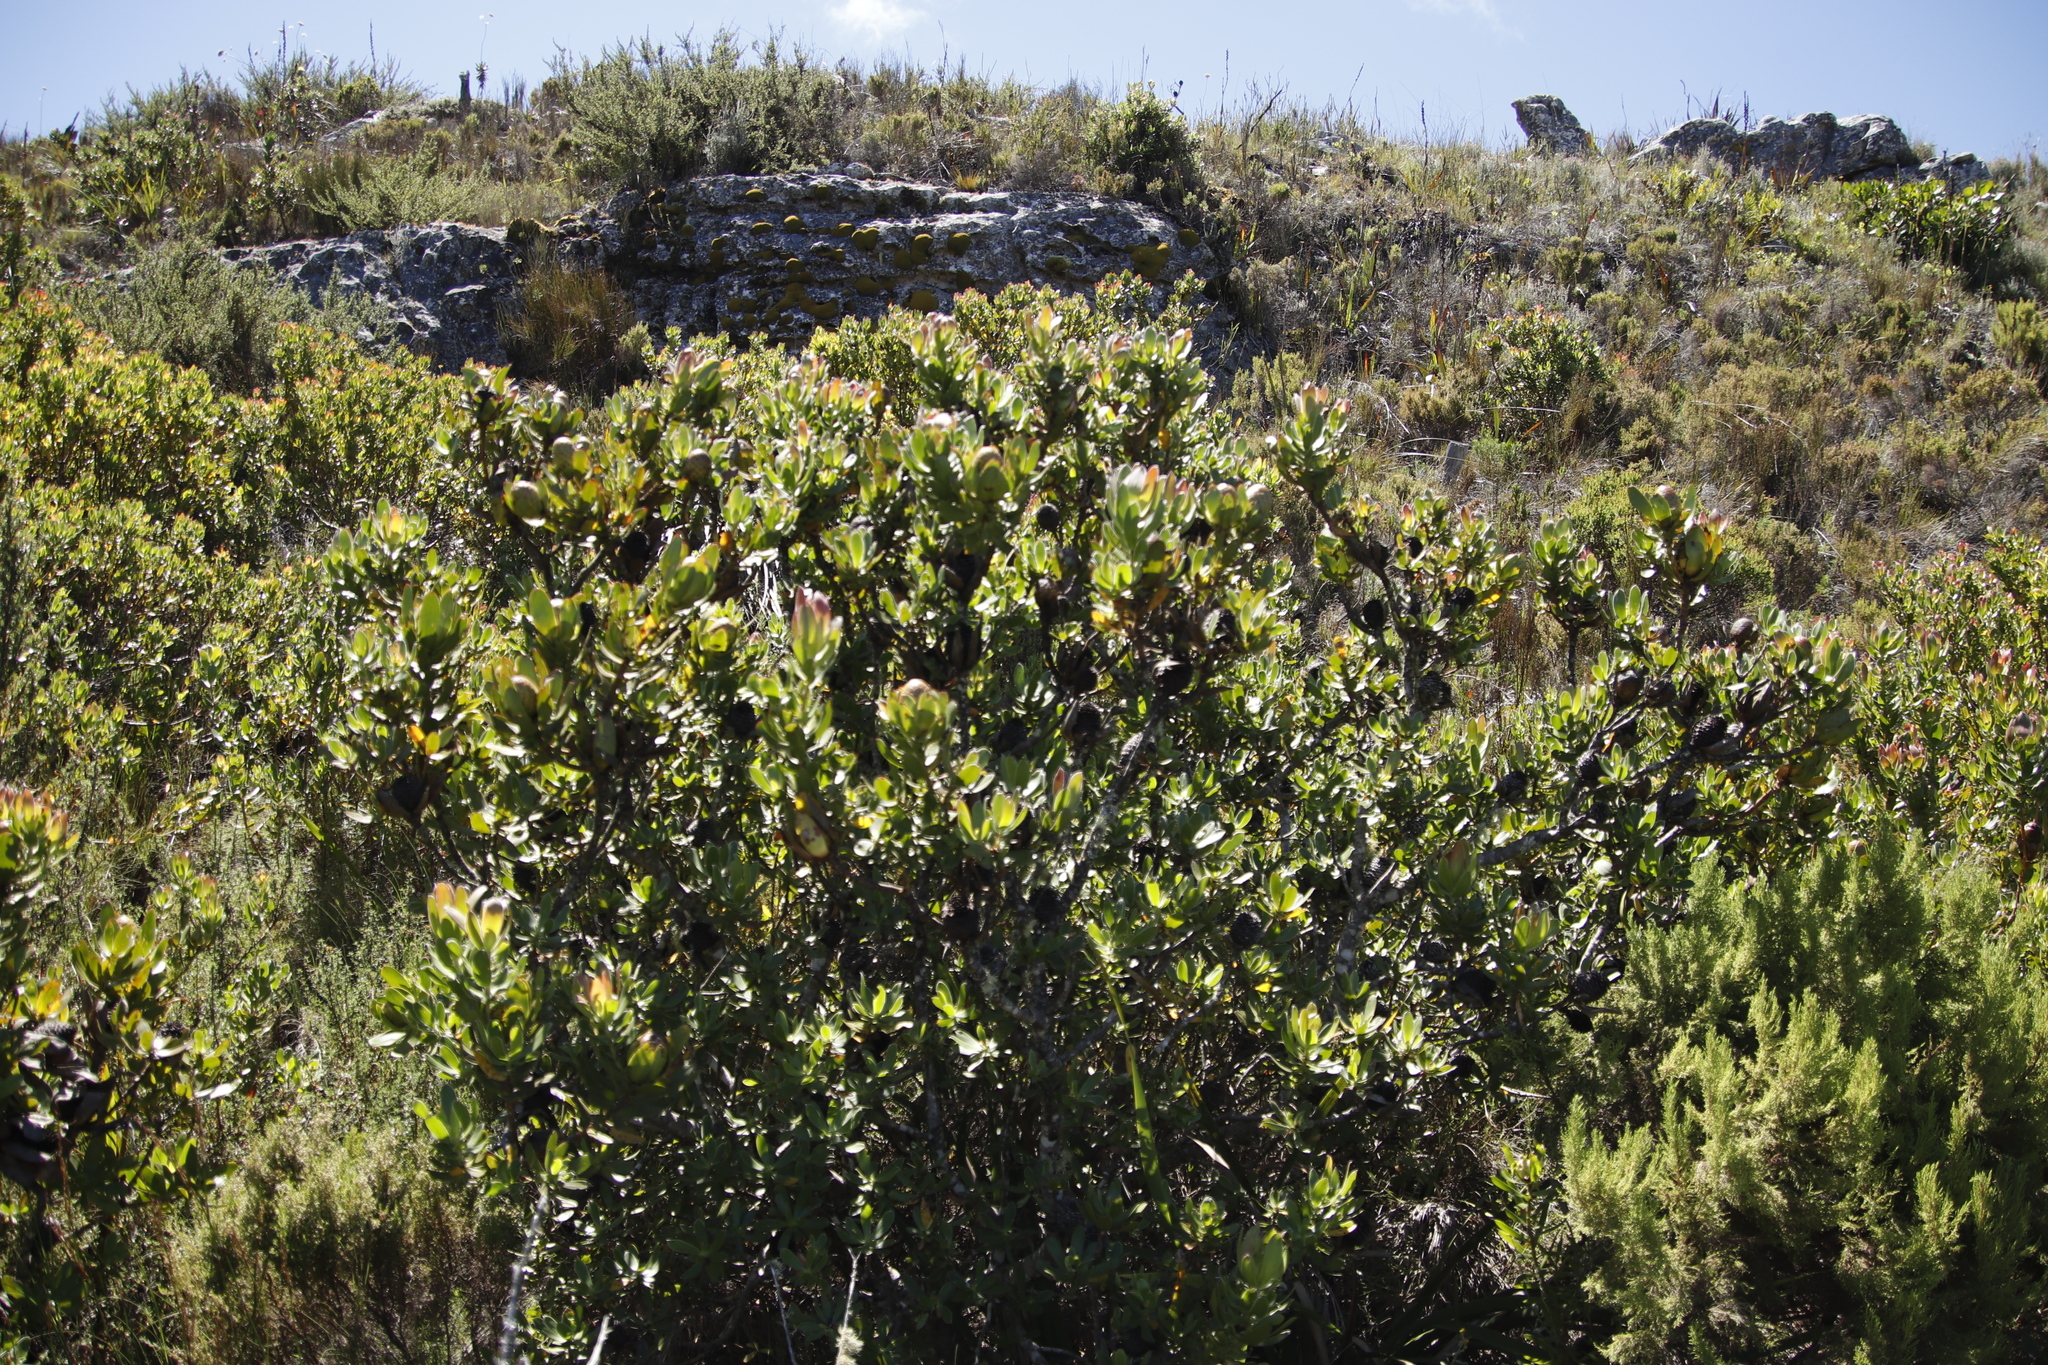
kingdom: Plantae
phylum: Tracheophyta
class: Magnoliopsida
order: Proteales
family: Proteaceae
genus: Leucadendron
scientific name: Leucadendron strobilinum
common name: Mountain rose
